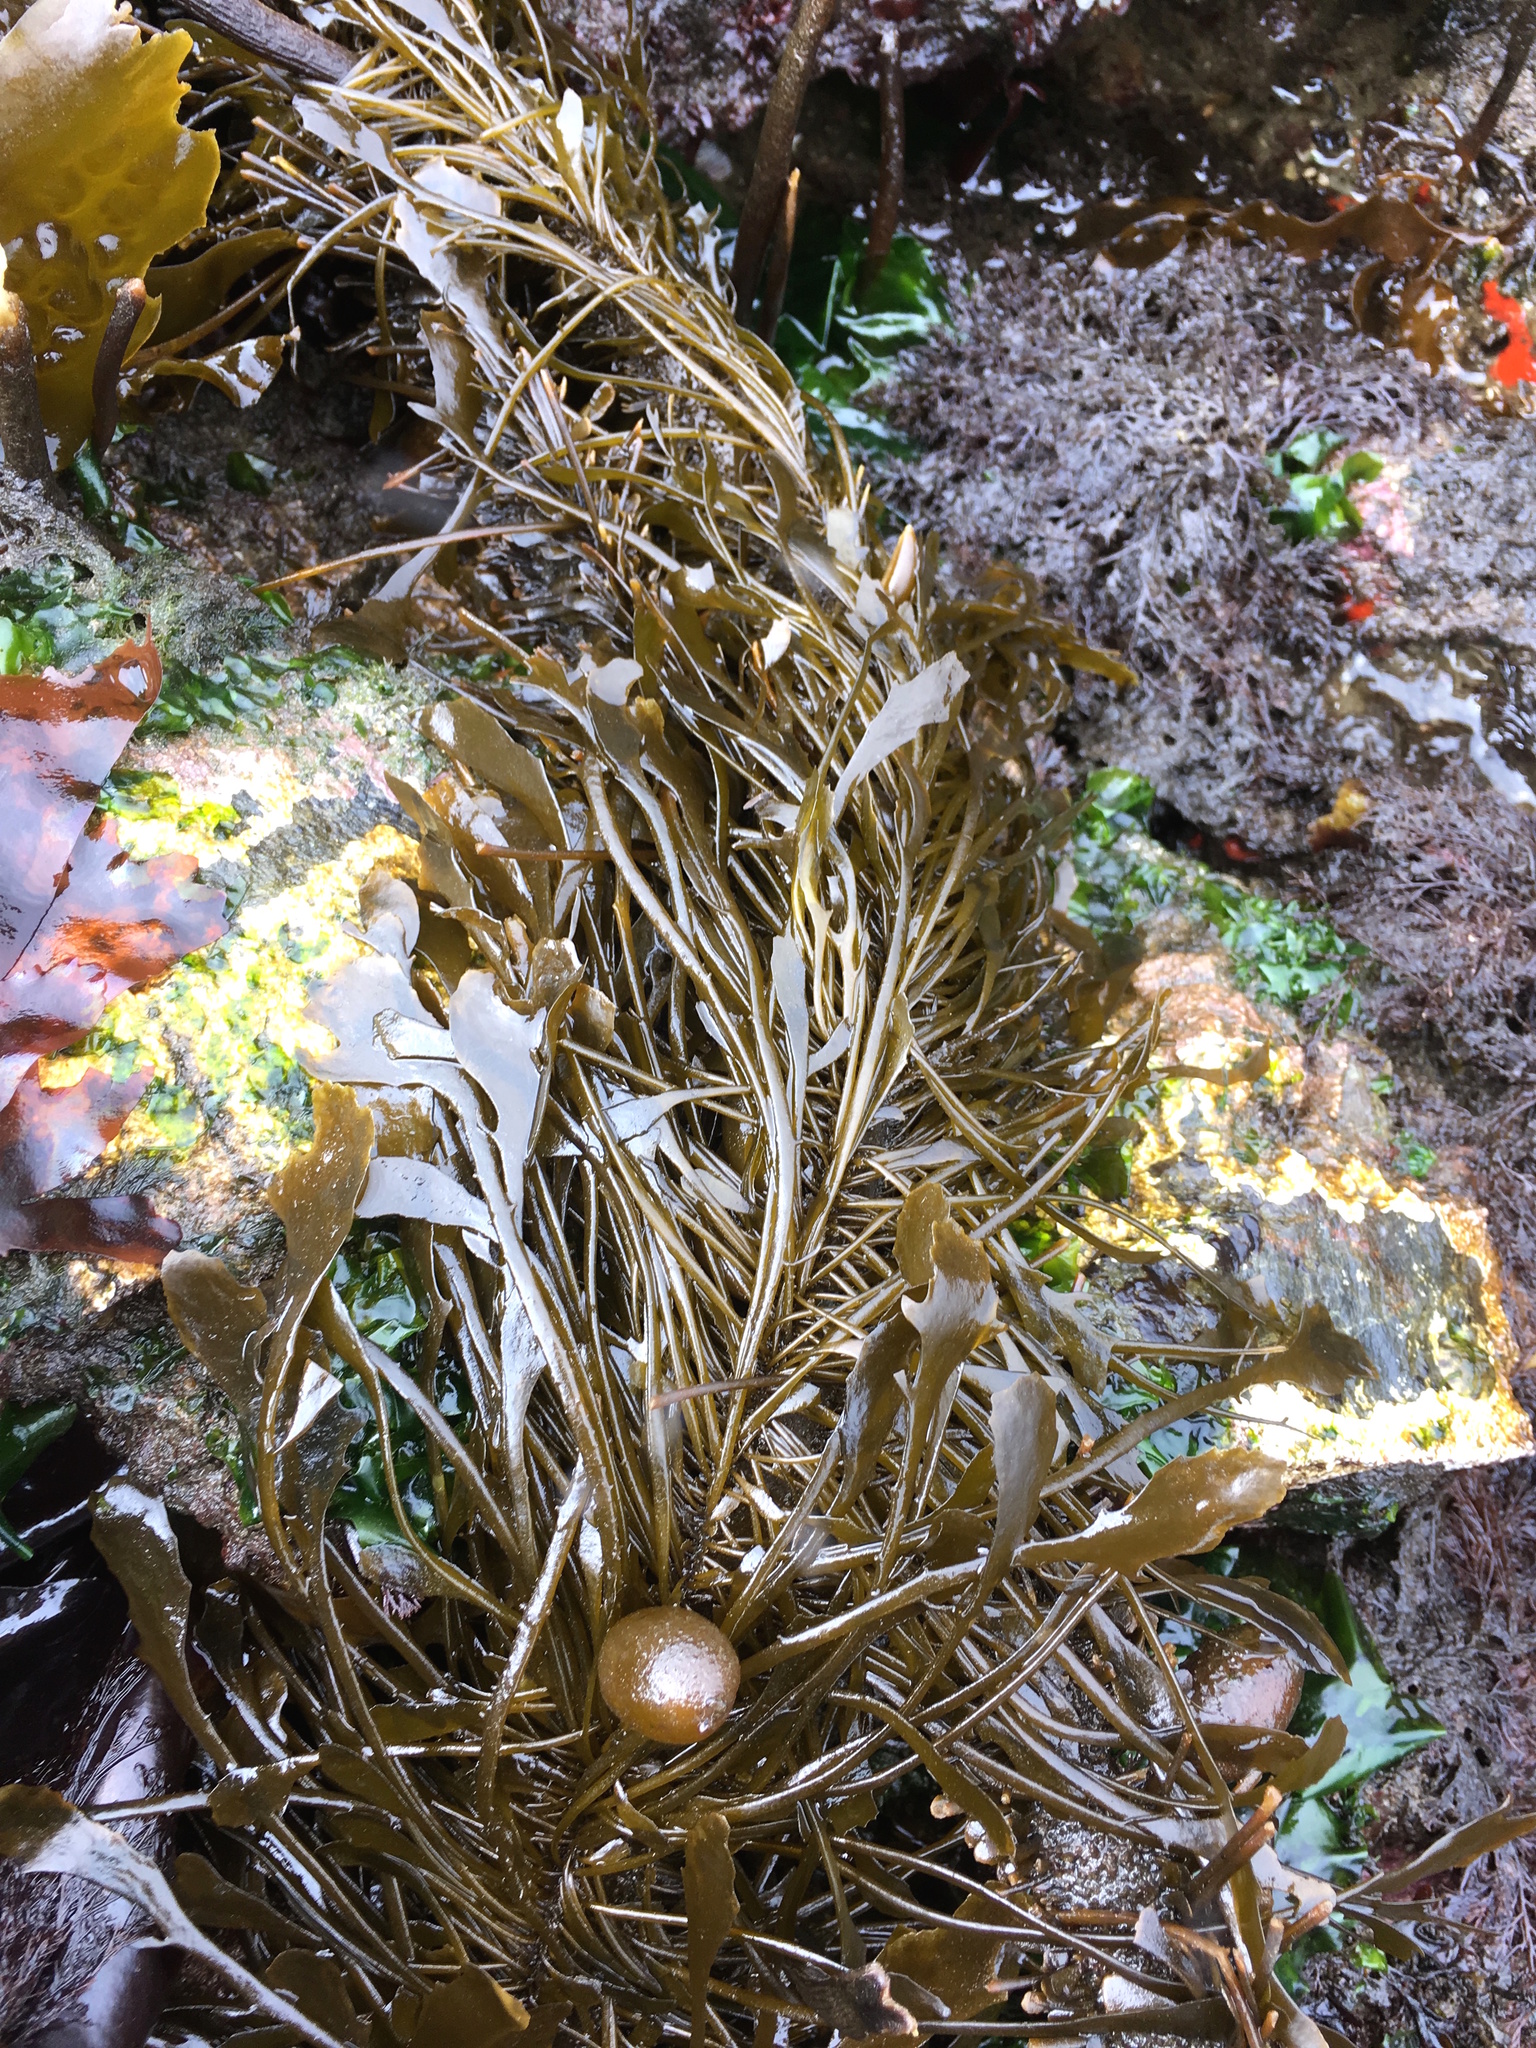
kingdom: Chromista
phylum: Ochrophyta
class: Phaeophyceae
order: Laminariales
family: Lessoniaceae
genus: Egregia
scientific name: Egregia menziesii
